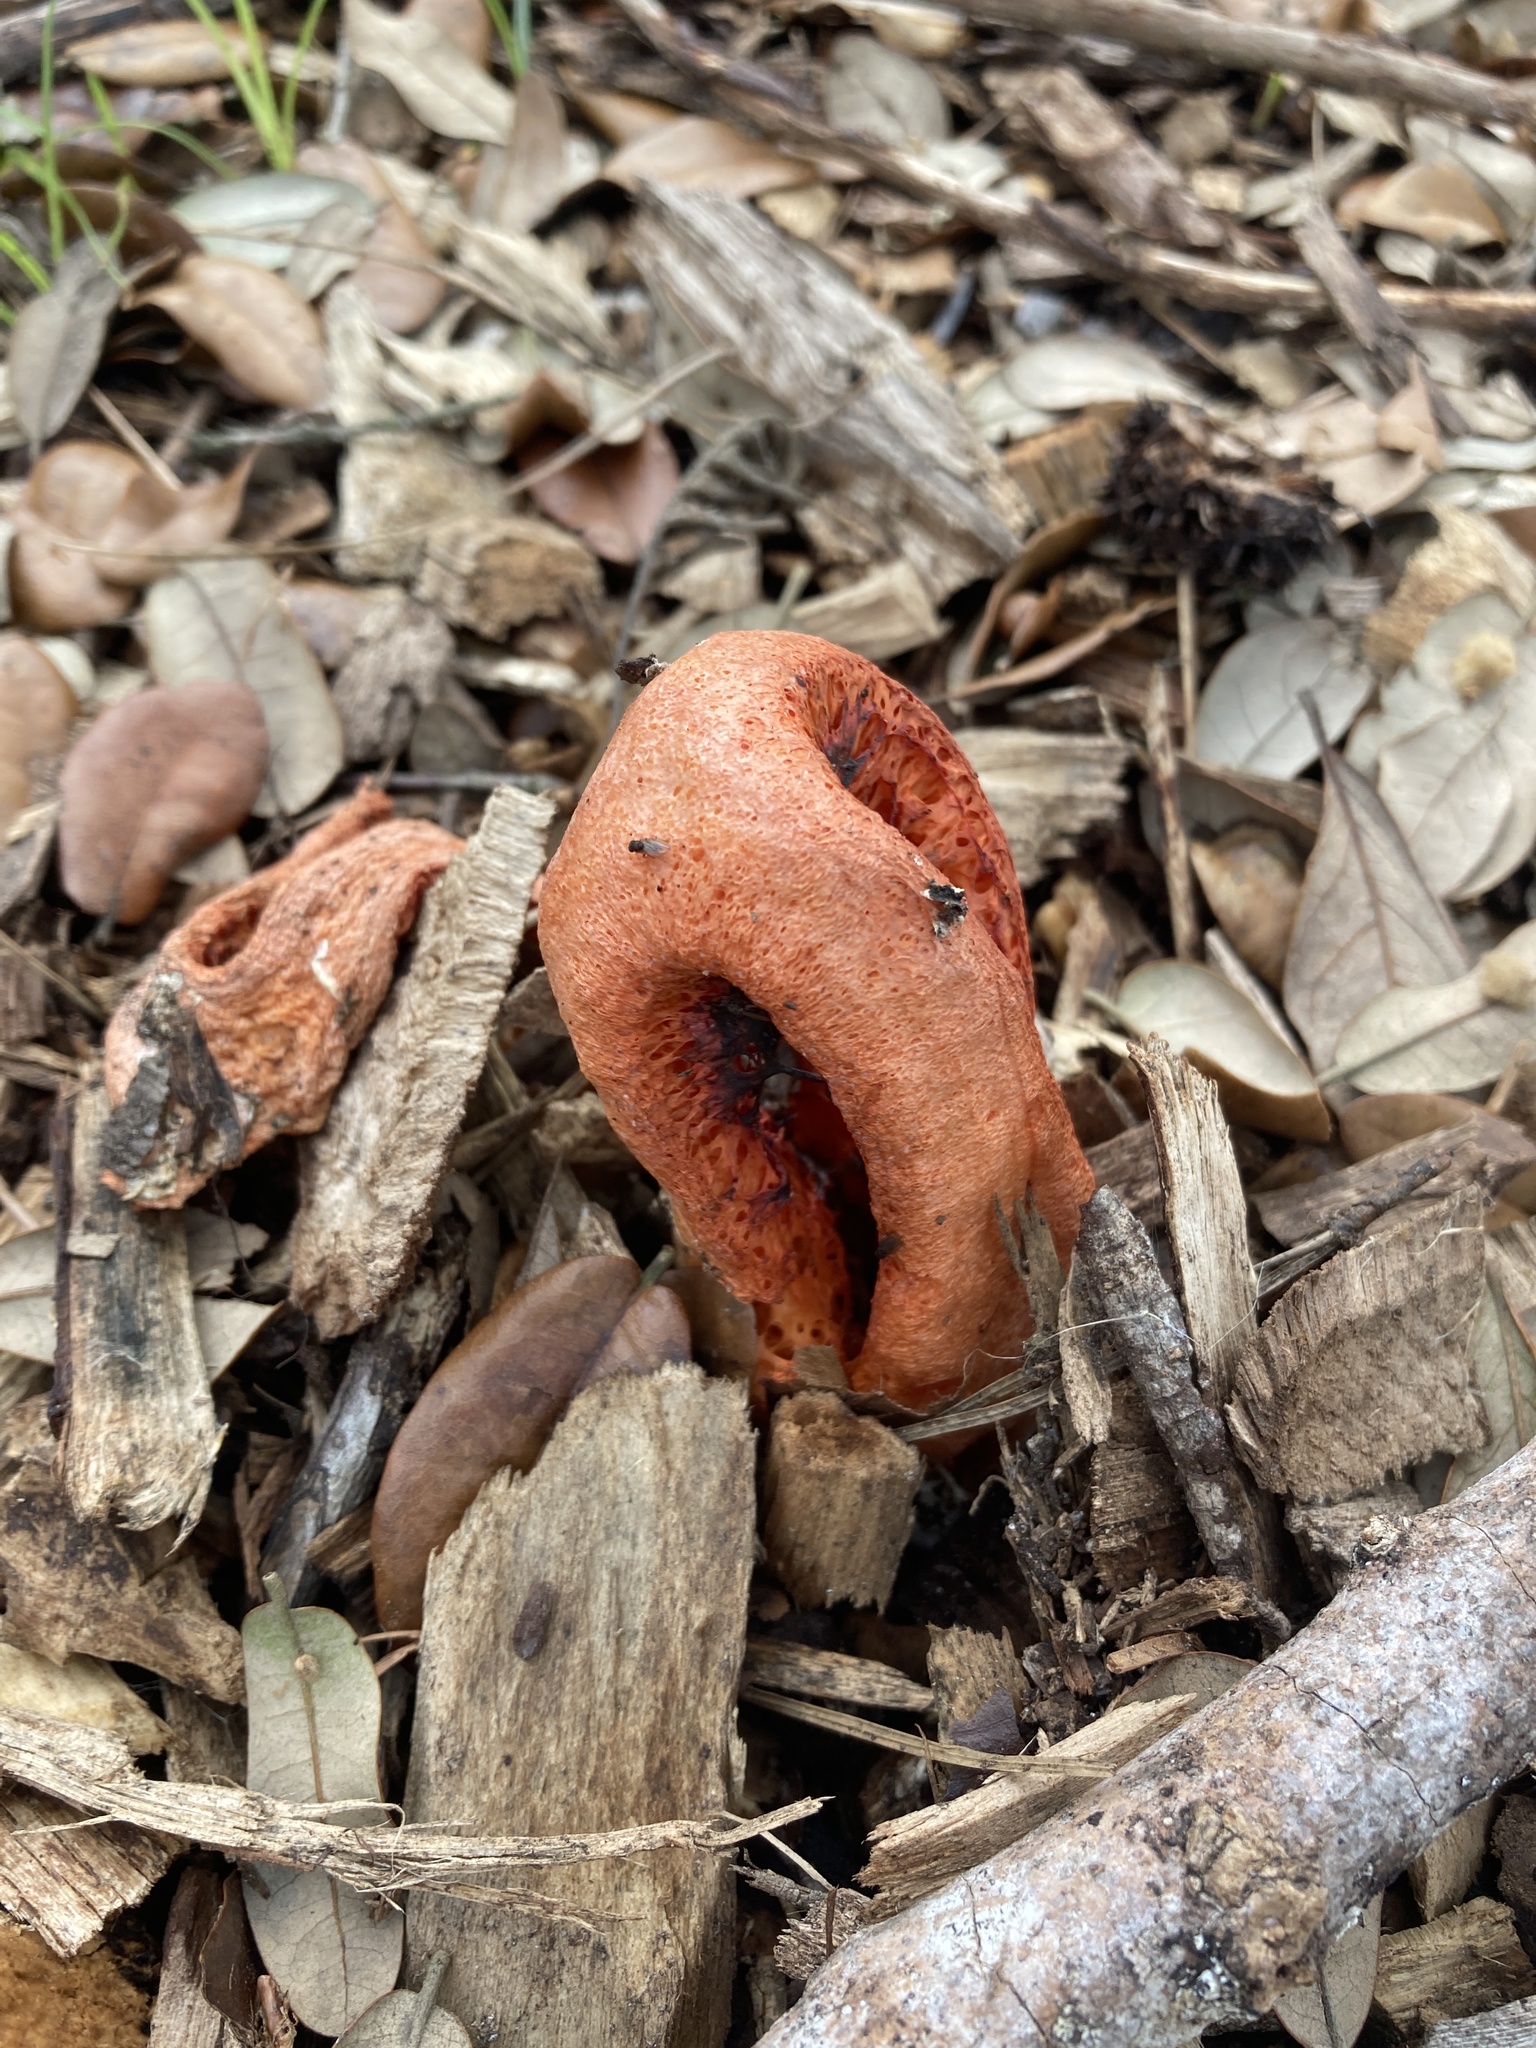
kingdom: Fungi
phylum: Basidiomycota
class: Agaricomycetes
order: Phallales
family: Phallaceae
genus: Clathrus
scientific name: Clathrus columnatus
